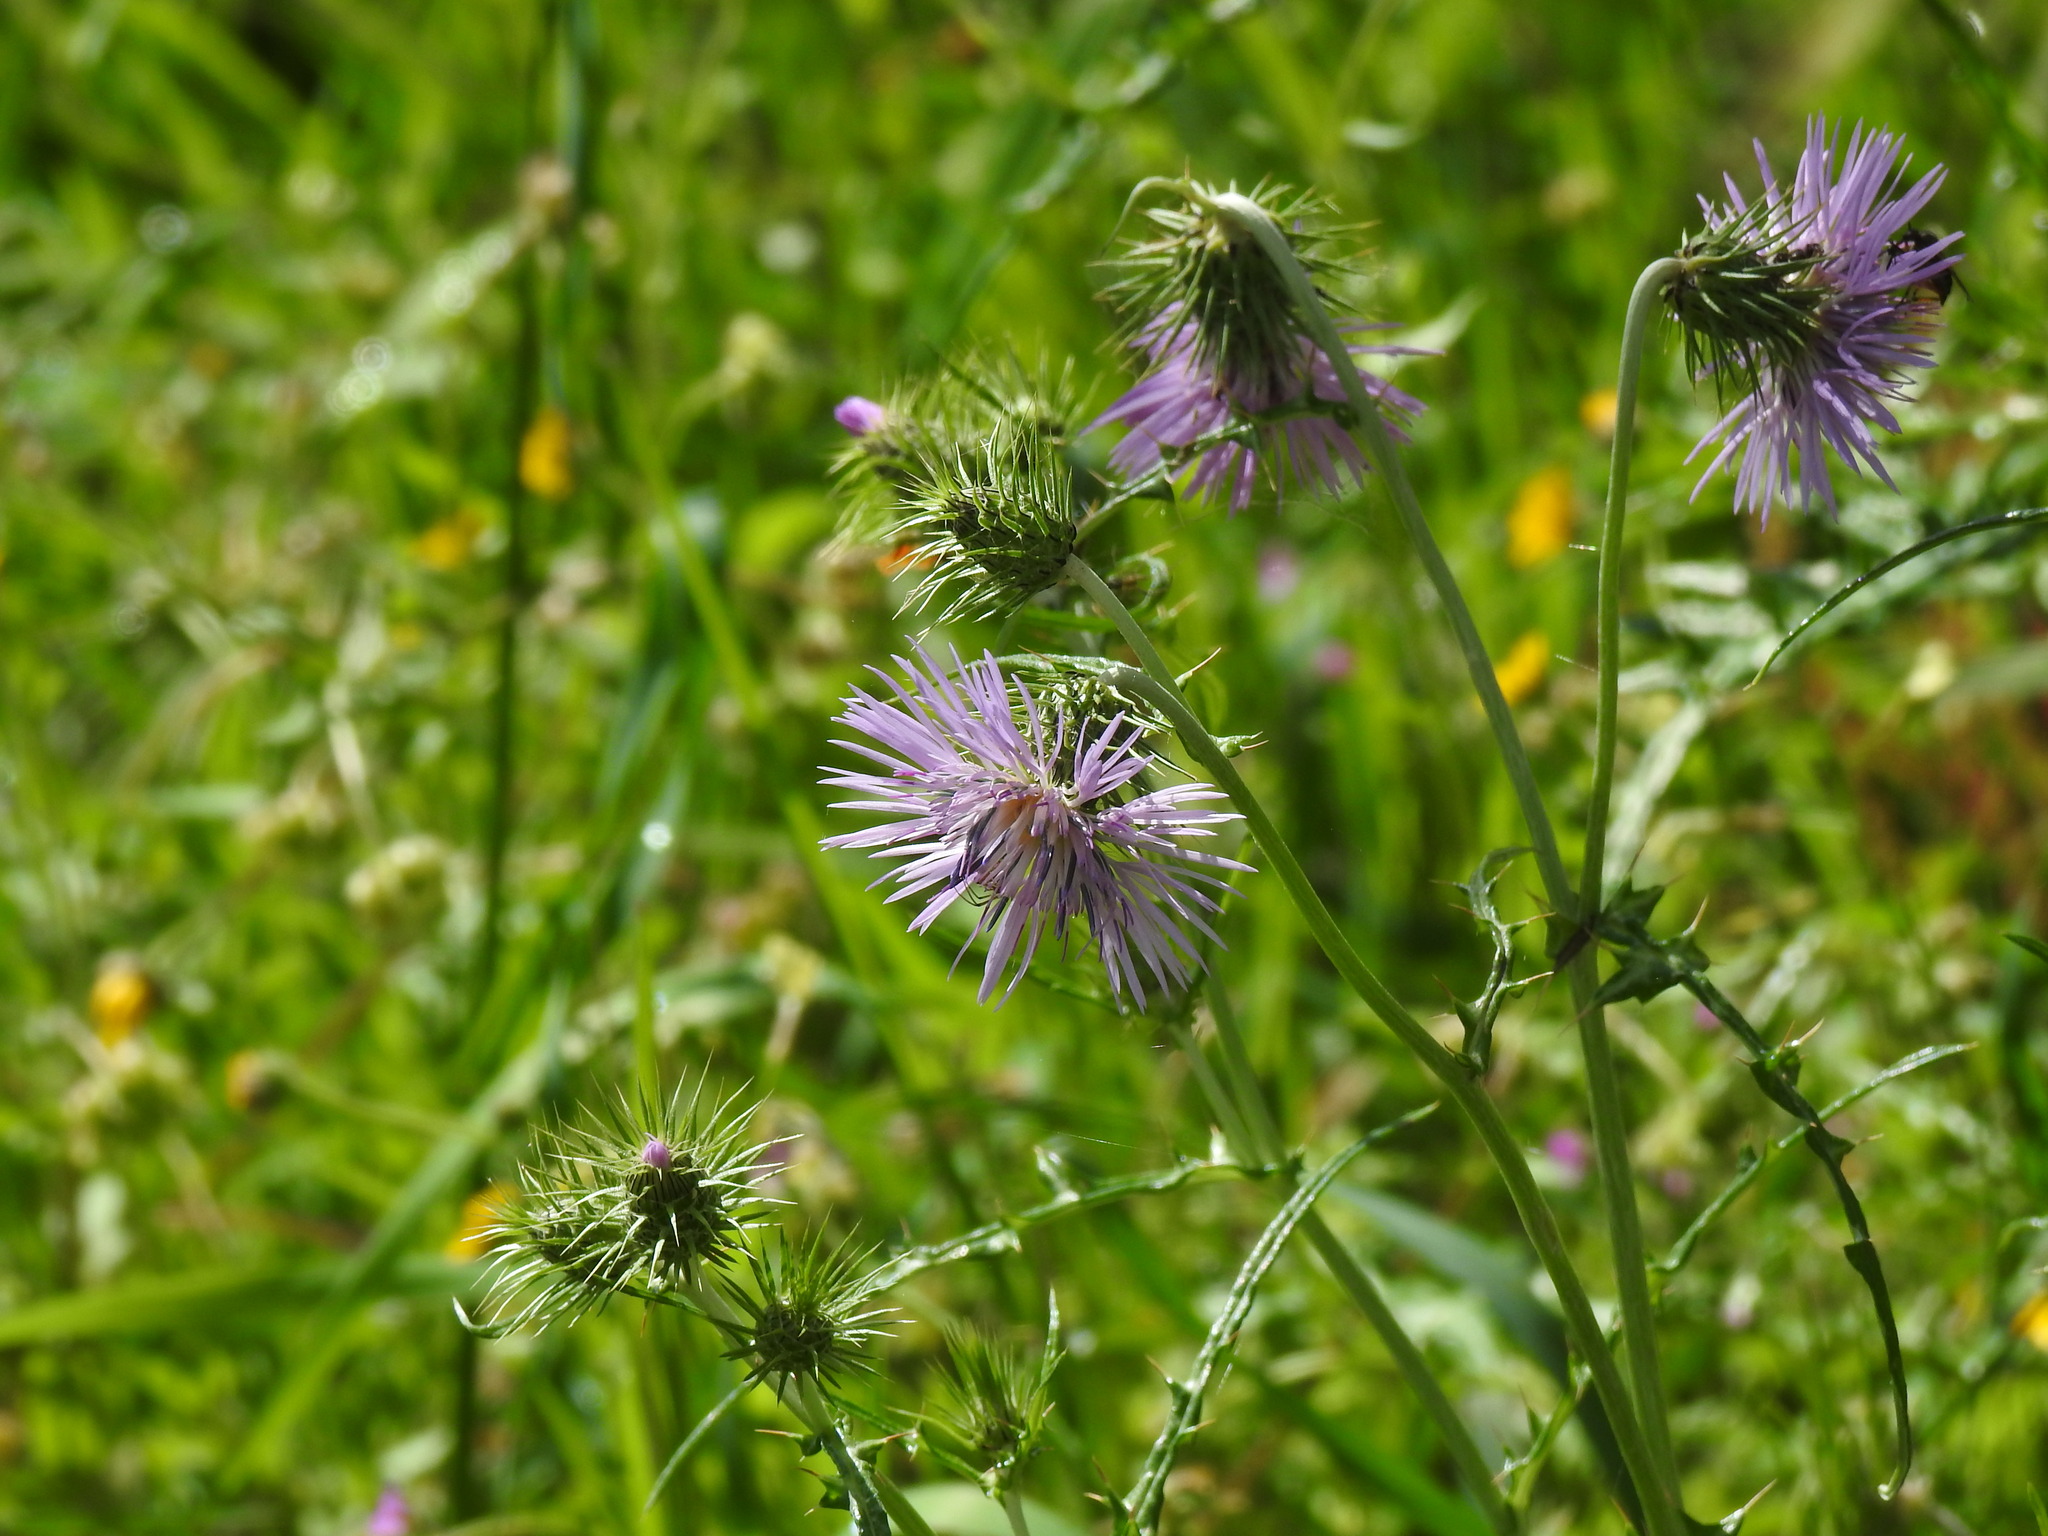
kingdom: Plantae
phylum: Tracheophyta
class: Magnoliopsida
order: Asterales
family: Asteraceae
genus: Galactites
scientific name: Galactites tomentosa
